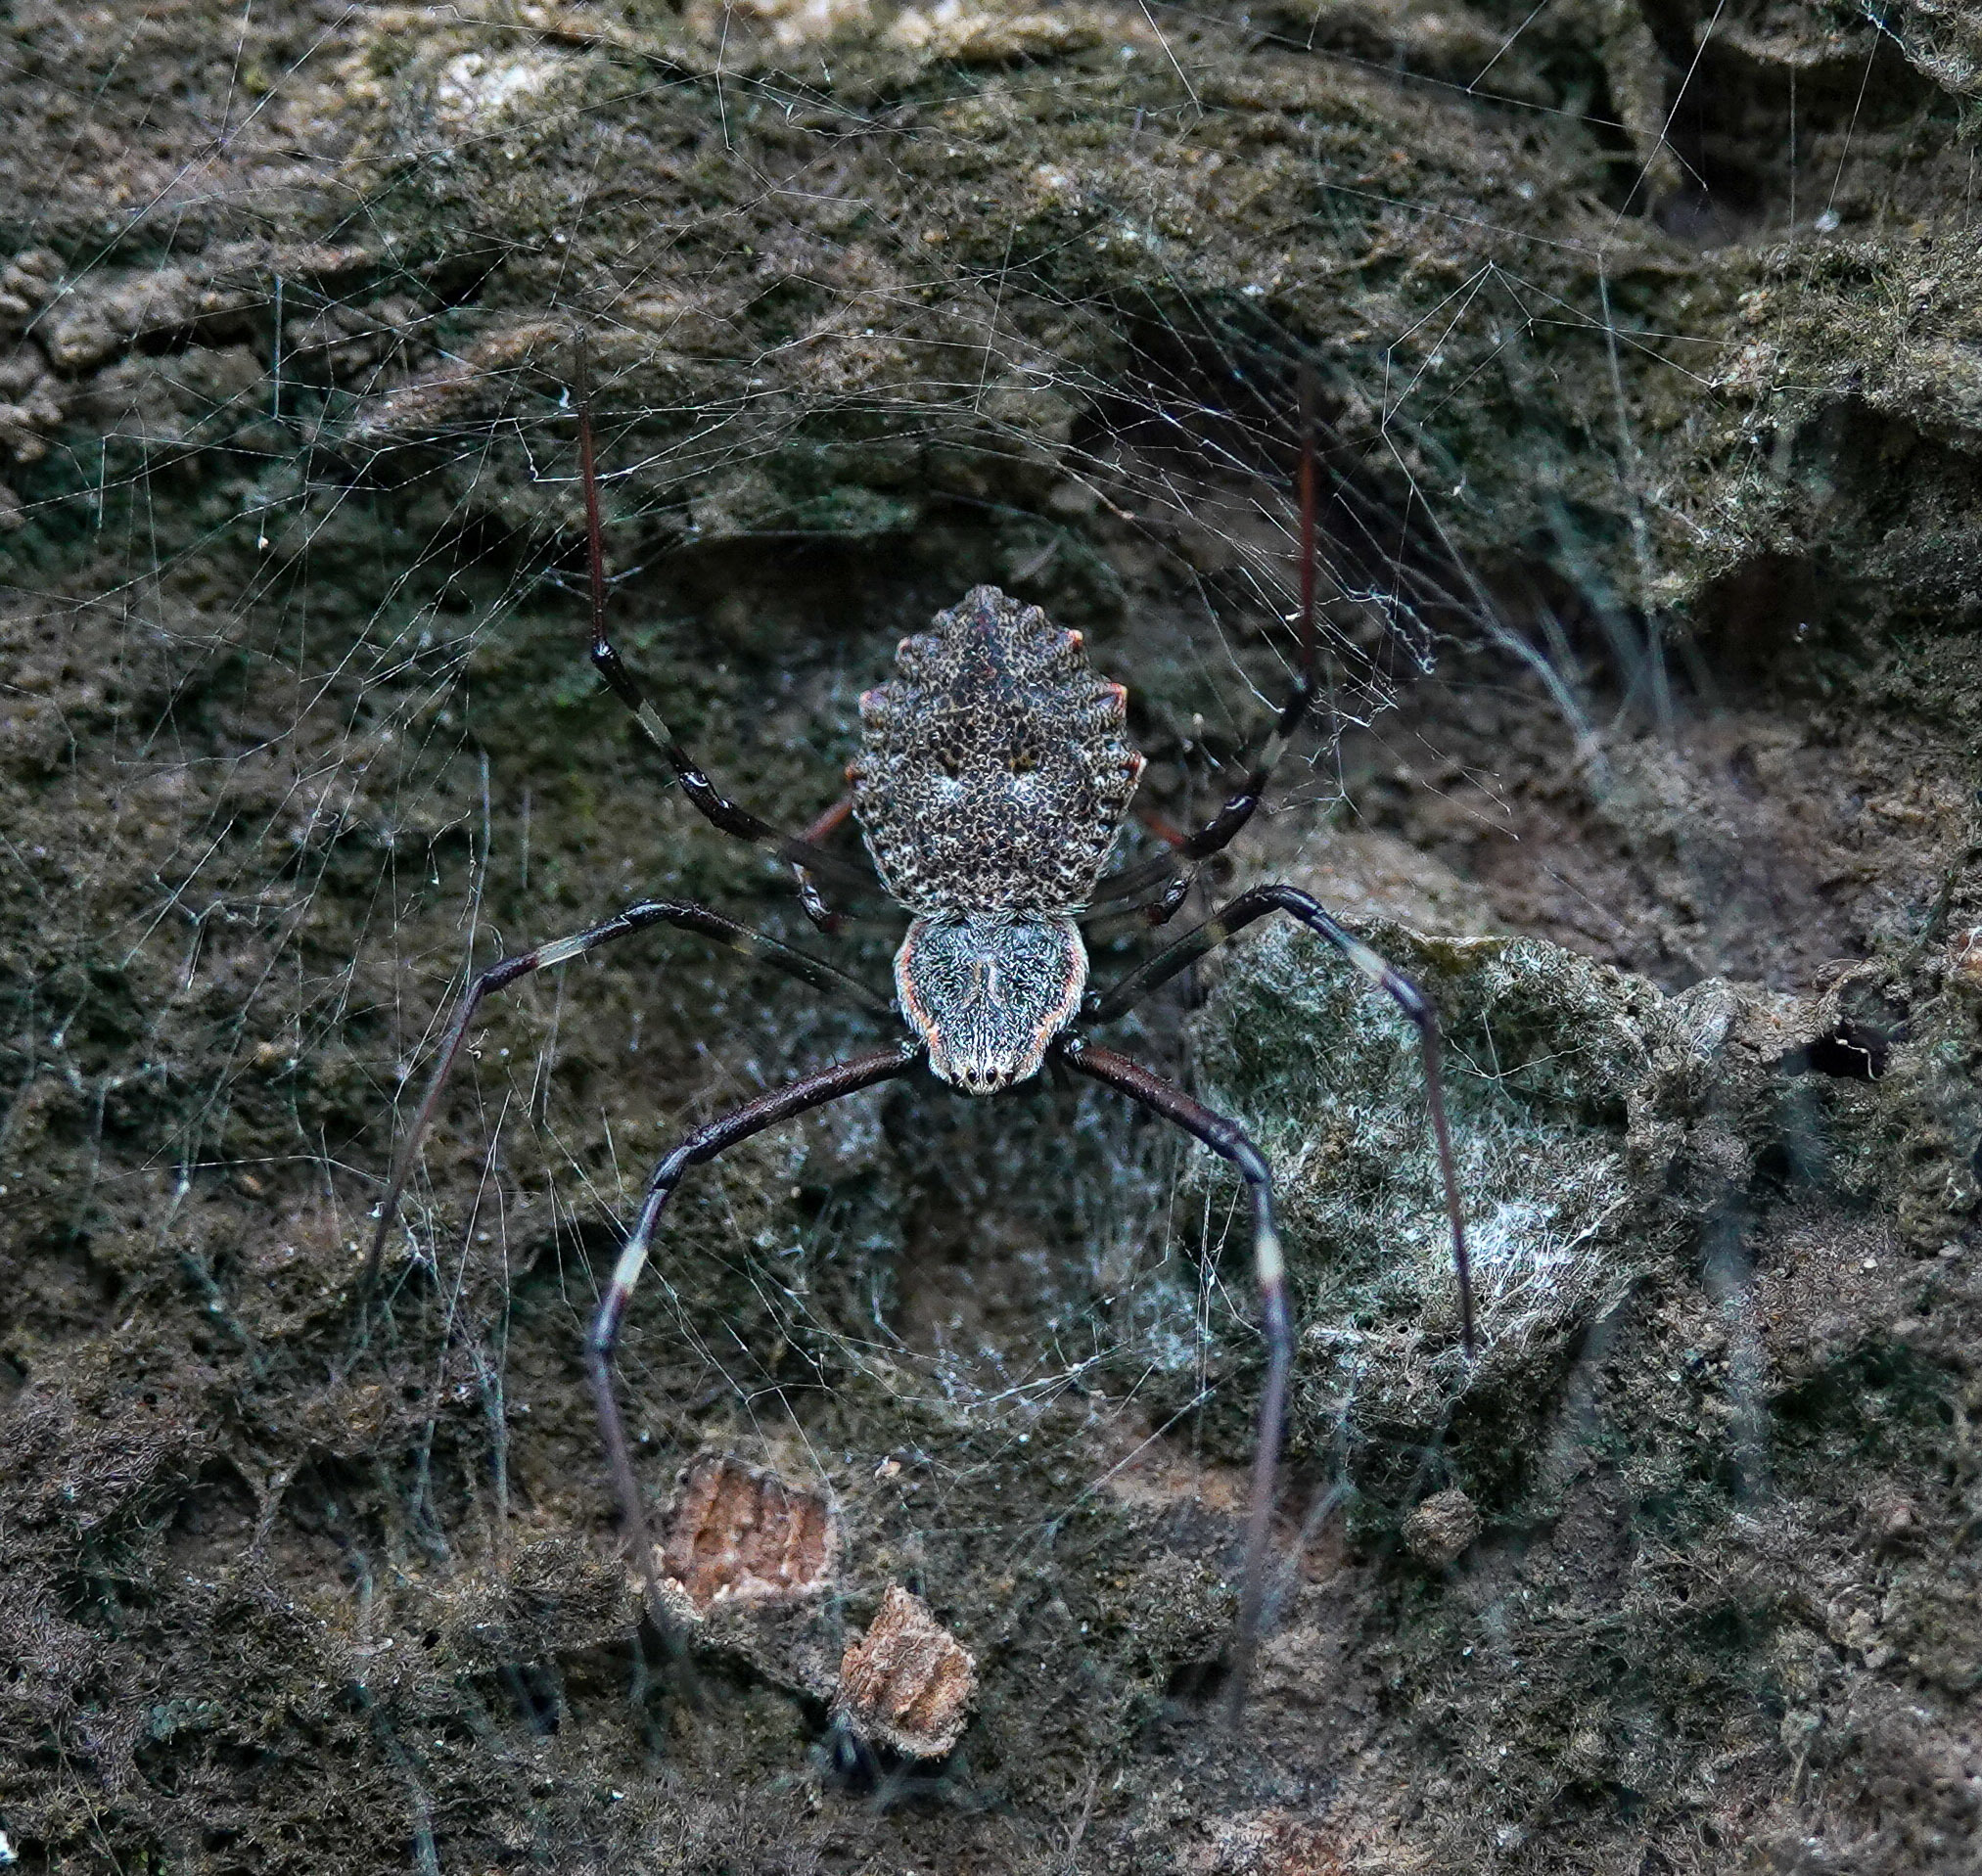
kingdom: Animalia
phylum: Arthropoda
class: Arachnida
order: Araneae
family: Araneidae
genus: Herennia
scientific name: Herennia multipuncta
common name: Spotted coin spider
